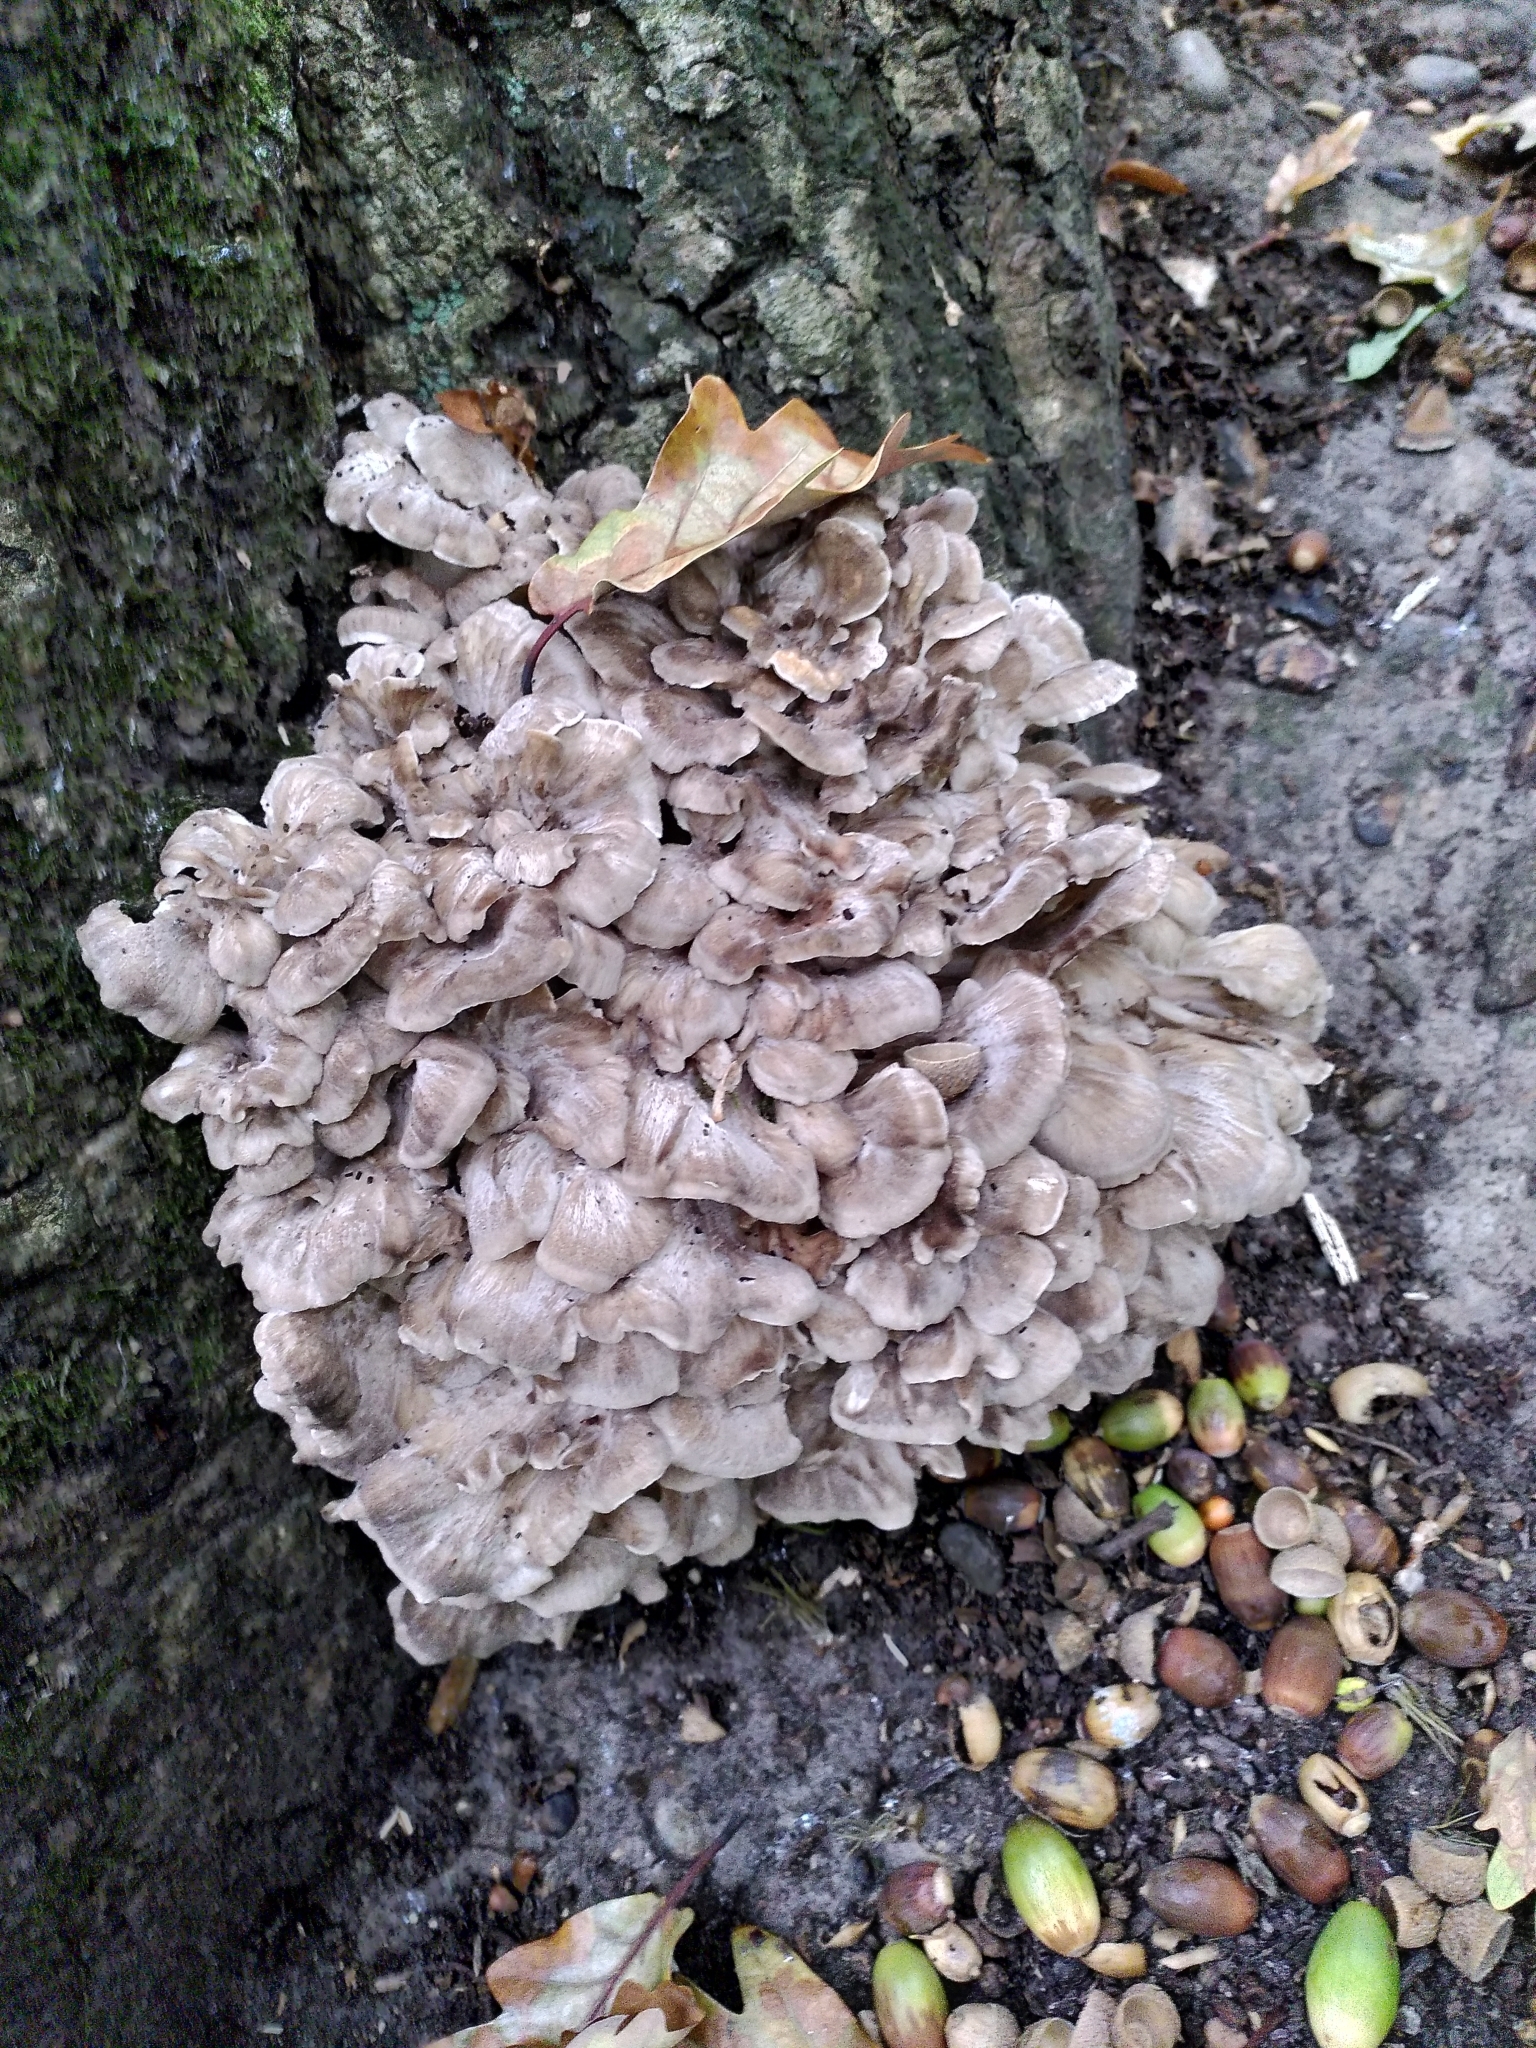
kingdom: Fungi
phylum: Basidiomycota
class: Agaricomycetes
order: Polyporales
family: Grifolaceae
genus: Grifola
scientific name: Grifola frondosa
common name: Hen of the woods
